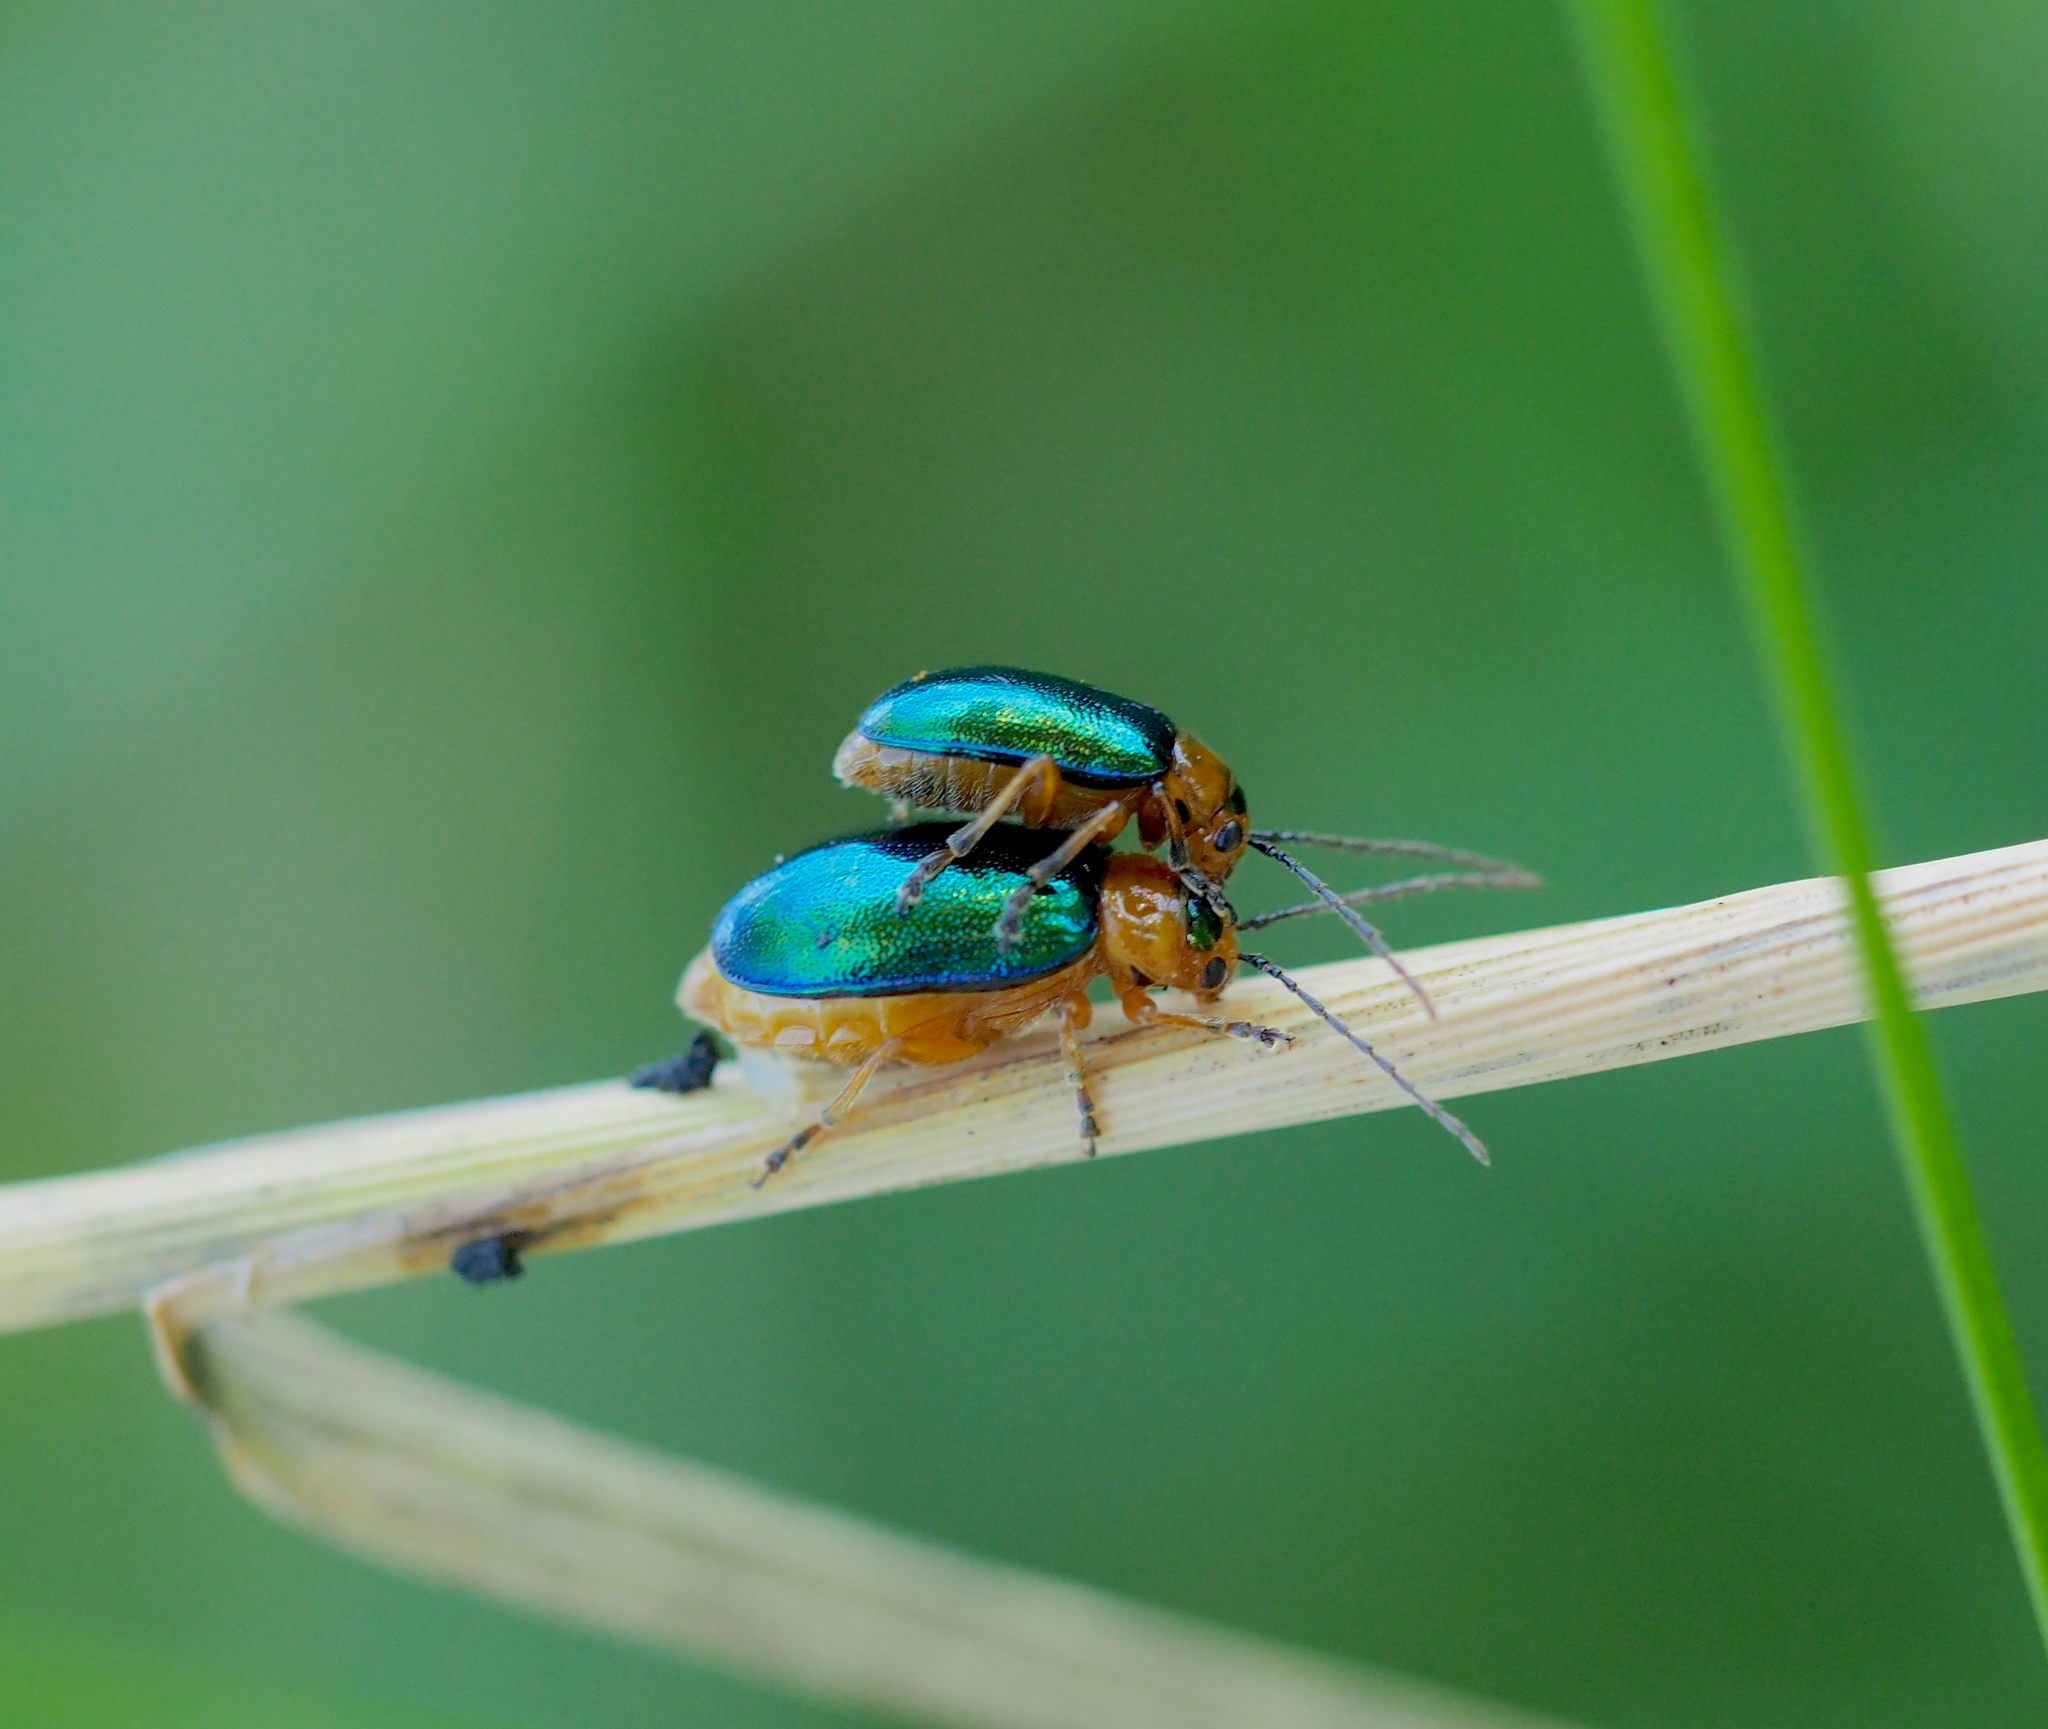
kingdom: Animalia
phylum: Arthropoda
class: Insecta
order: Coleoptera
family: Chrysomelidae
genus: Sermylassa
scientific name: Sermylassa halensis
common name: Leaf beetle
